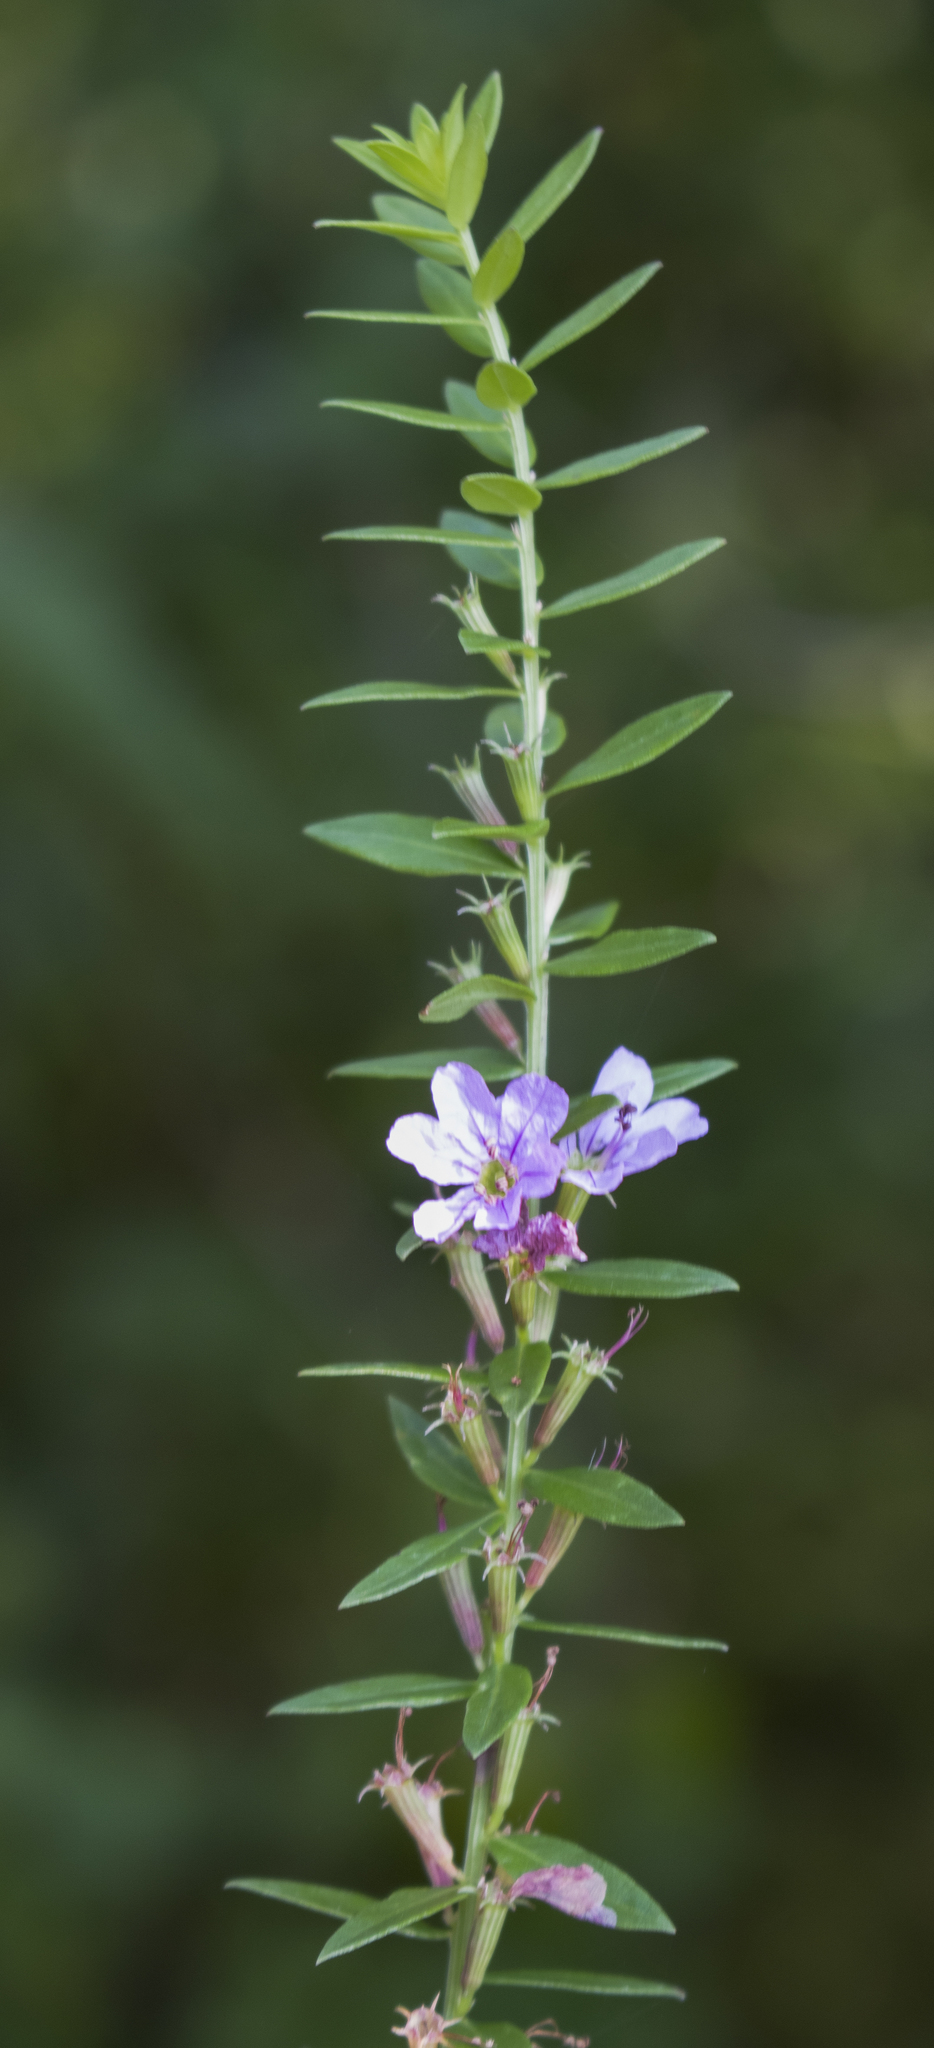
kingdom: Plantae
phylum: Tracheophyta
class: Magnoliopsida
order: Myrtales
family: Lythraceae
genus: Lythrum
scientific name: Lythrum alatum
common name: Winged loosestrife
